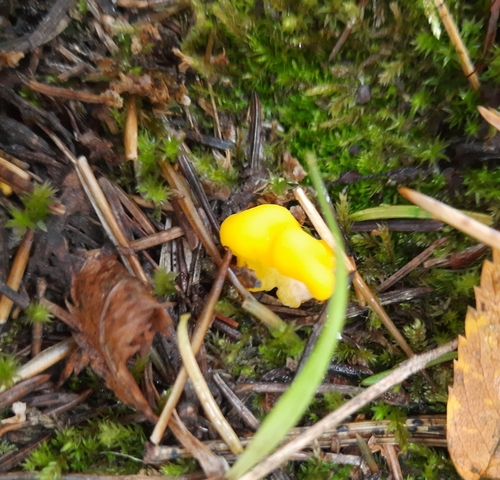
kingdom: Fungi
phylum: Ascomycota
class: Neolectomycetes
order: Neolectales
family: Neolectaceae
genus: Neolecta
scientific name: Neolecta
